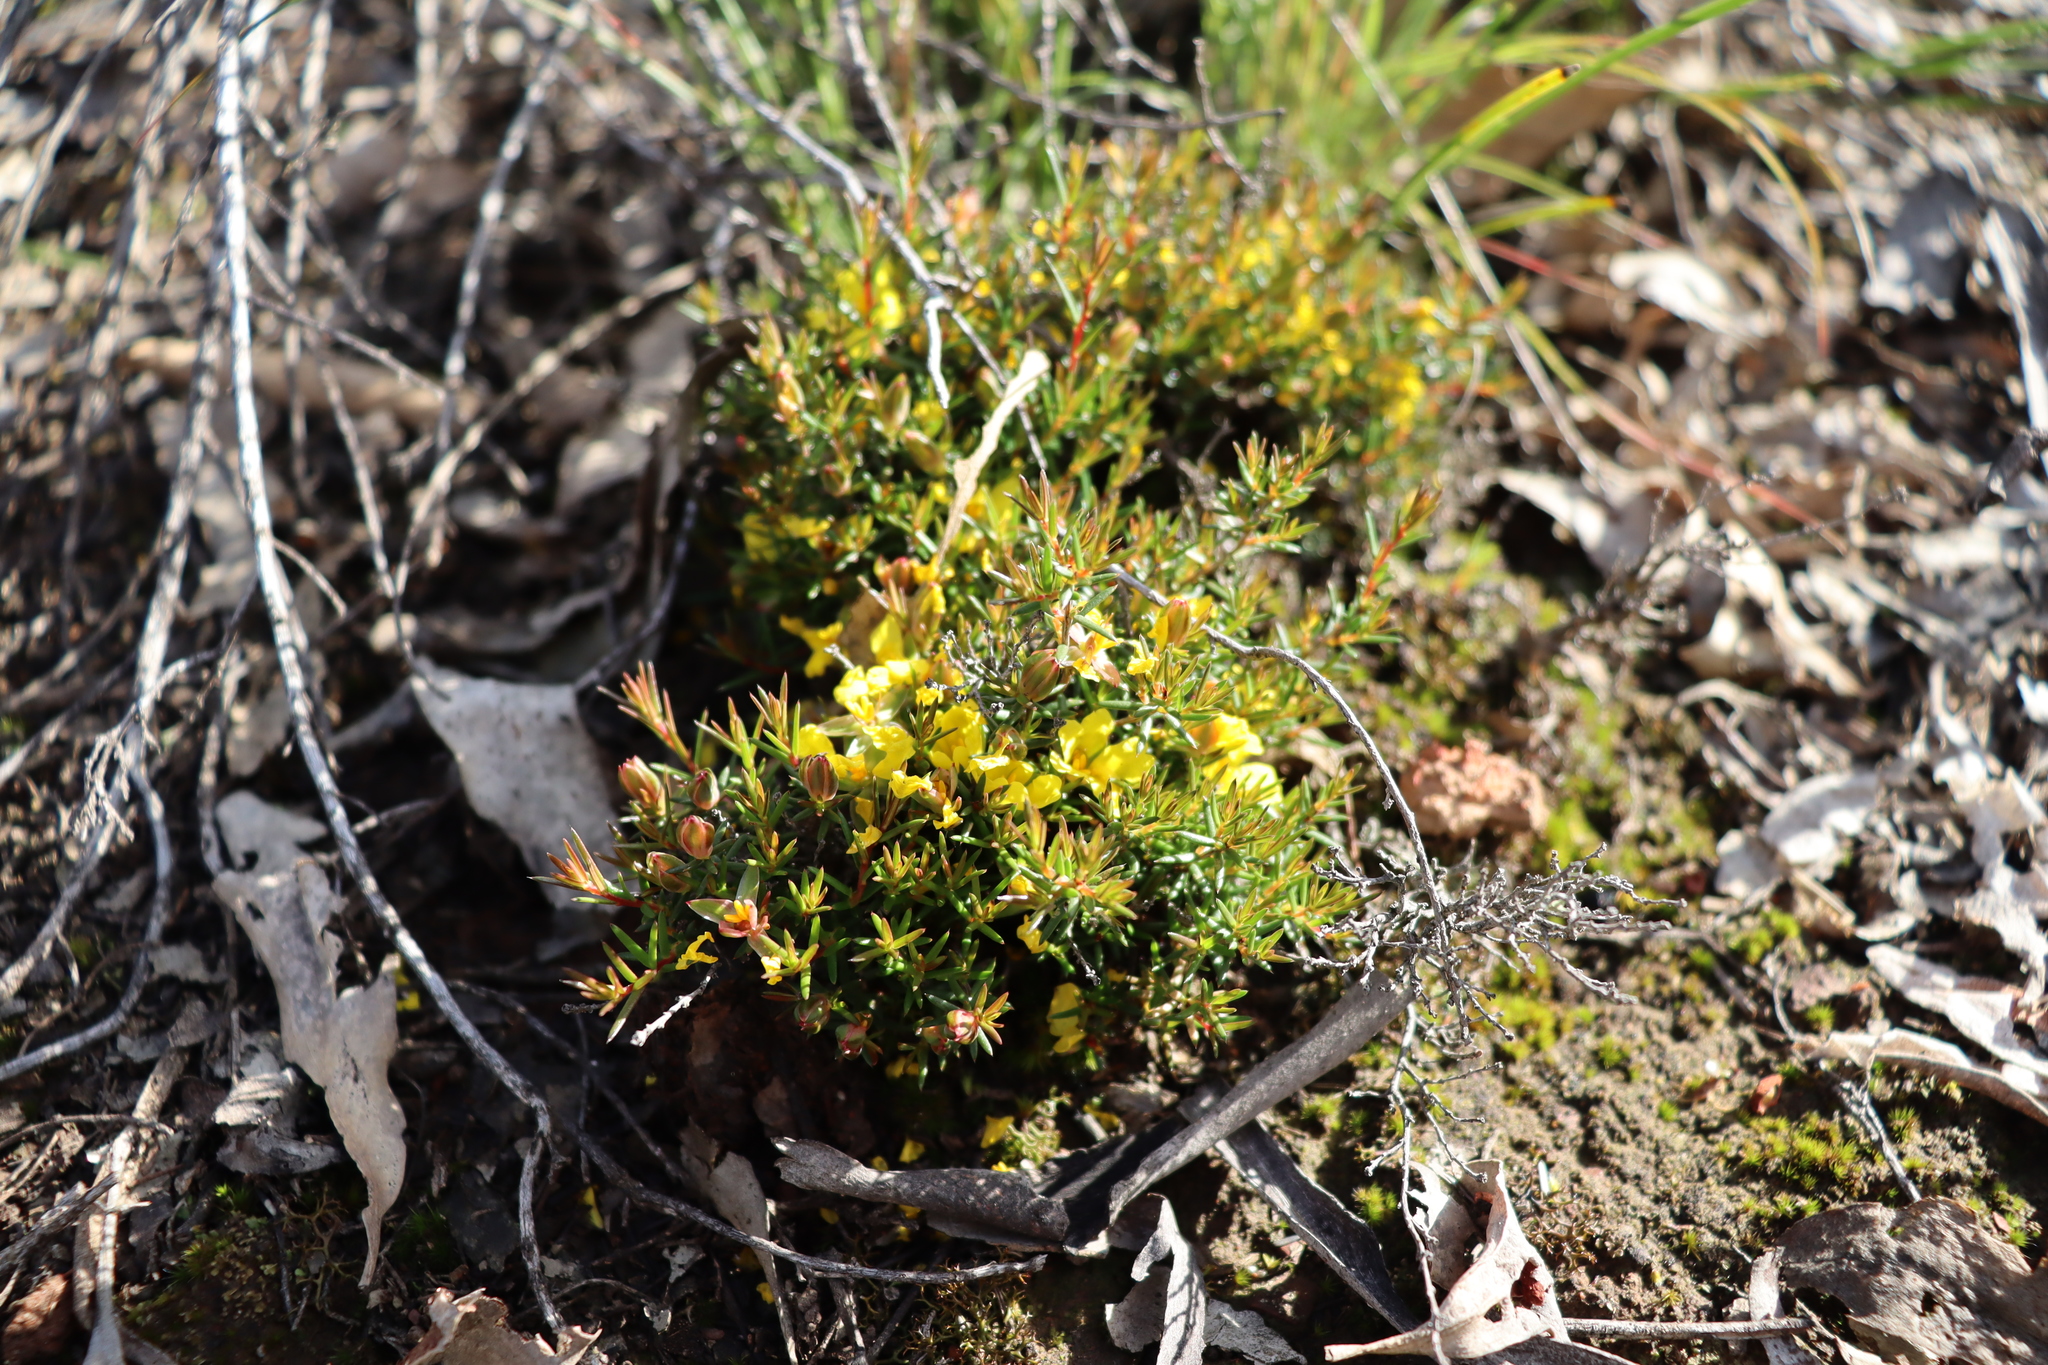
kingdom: Plantae
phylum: Tracheophyta
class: Magnoliopsida
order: Dilleniales
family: Dilleniaceae
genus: Hibbertia
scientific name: Hibbertia exutiacies
